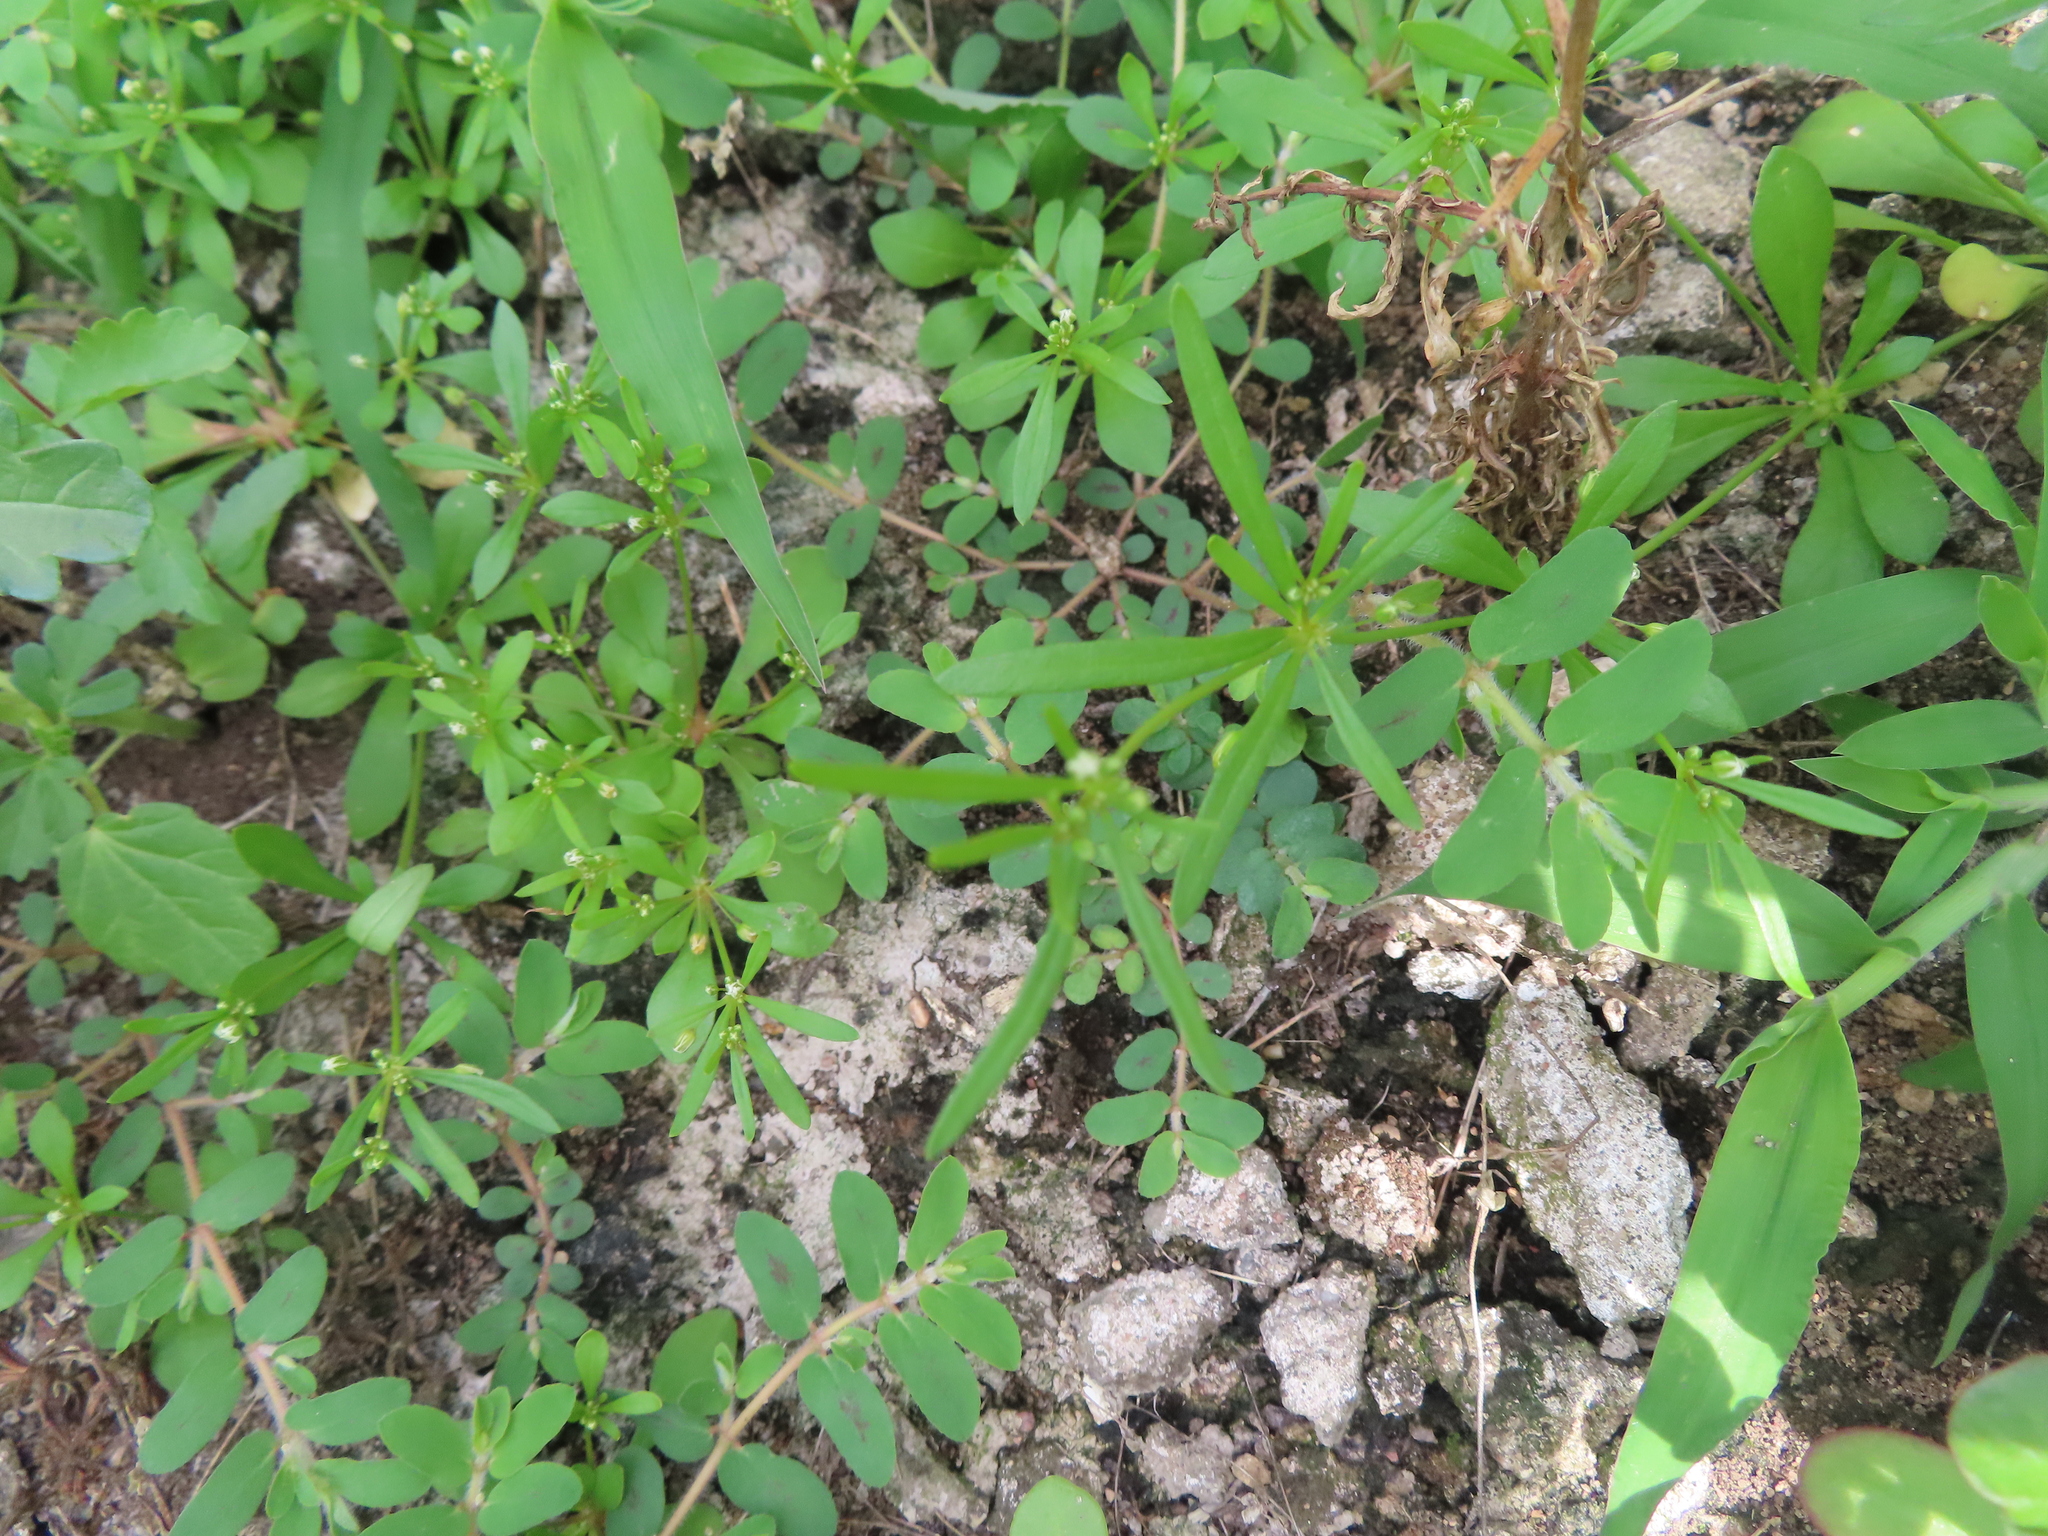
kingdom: Plantae
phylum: Tracheophyta
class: Magnoliopsida
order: Caryophyllales
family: Molluginaceae
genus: Mollugo
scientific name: Mollugo verticillata
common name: Green carpetweed
